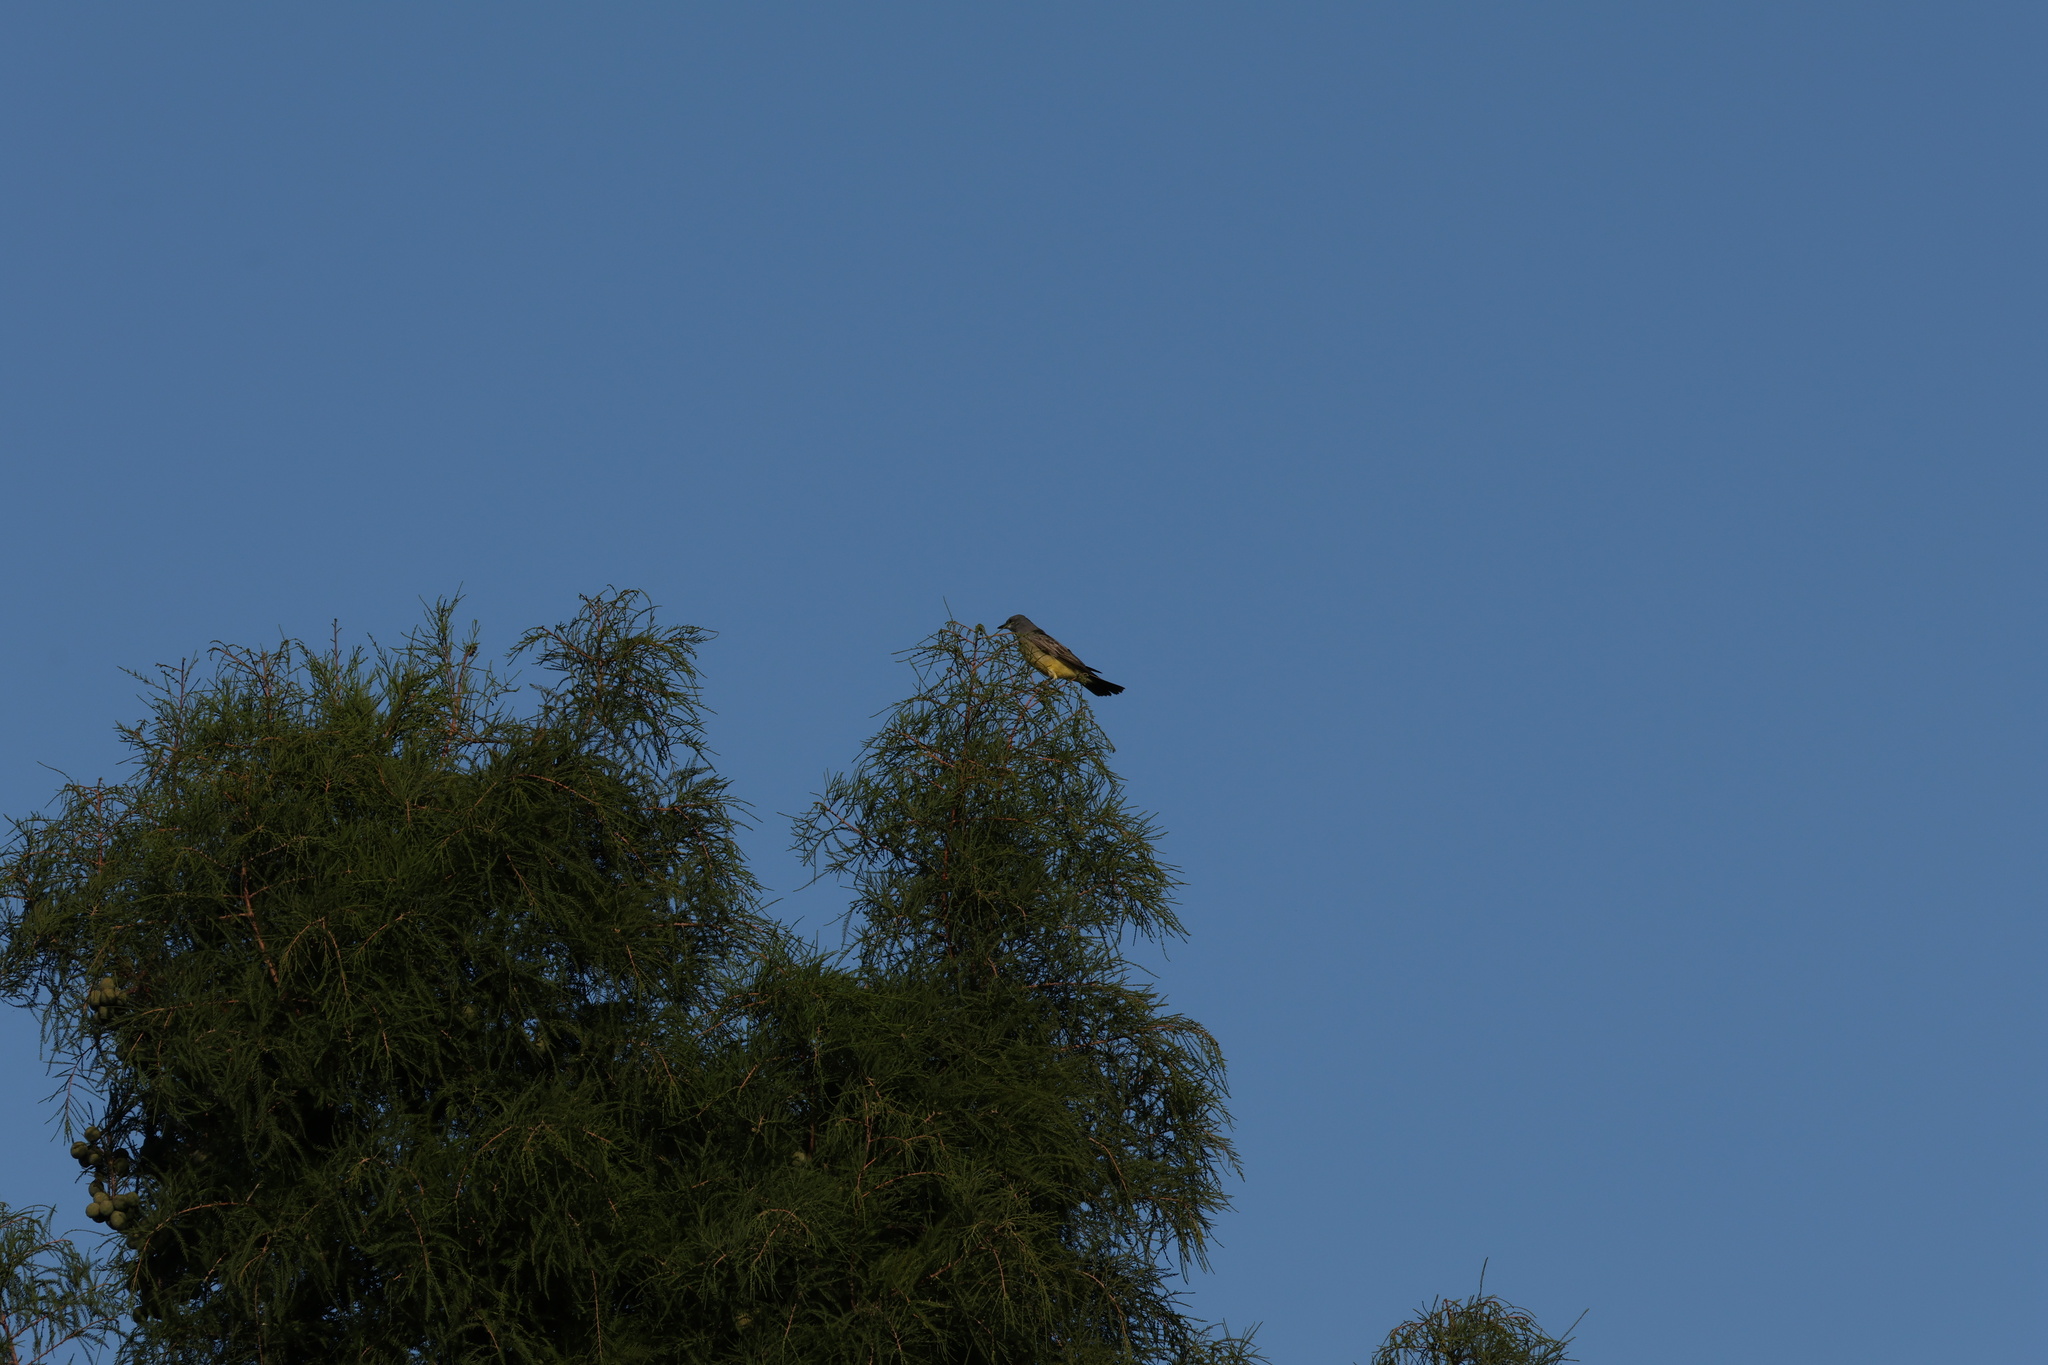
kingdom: Animalia
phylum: Chordata
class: Aves
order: Passeriformes
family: Tyrannidae
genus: Tyrannus
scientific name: Tyrannus vociferans
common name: Cassin's kingbird
